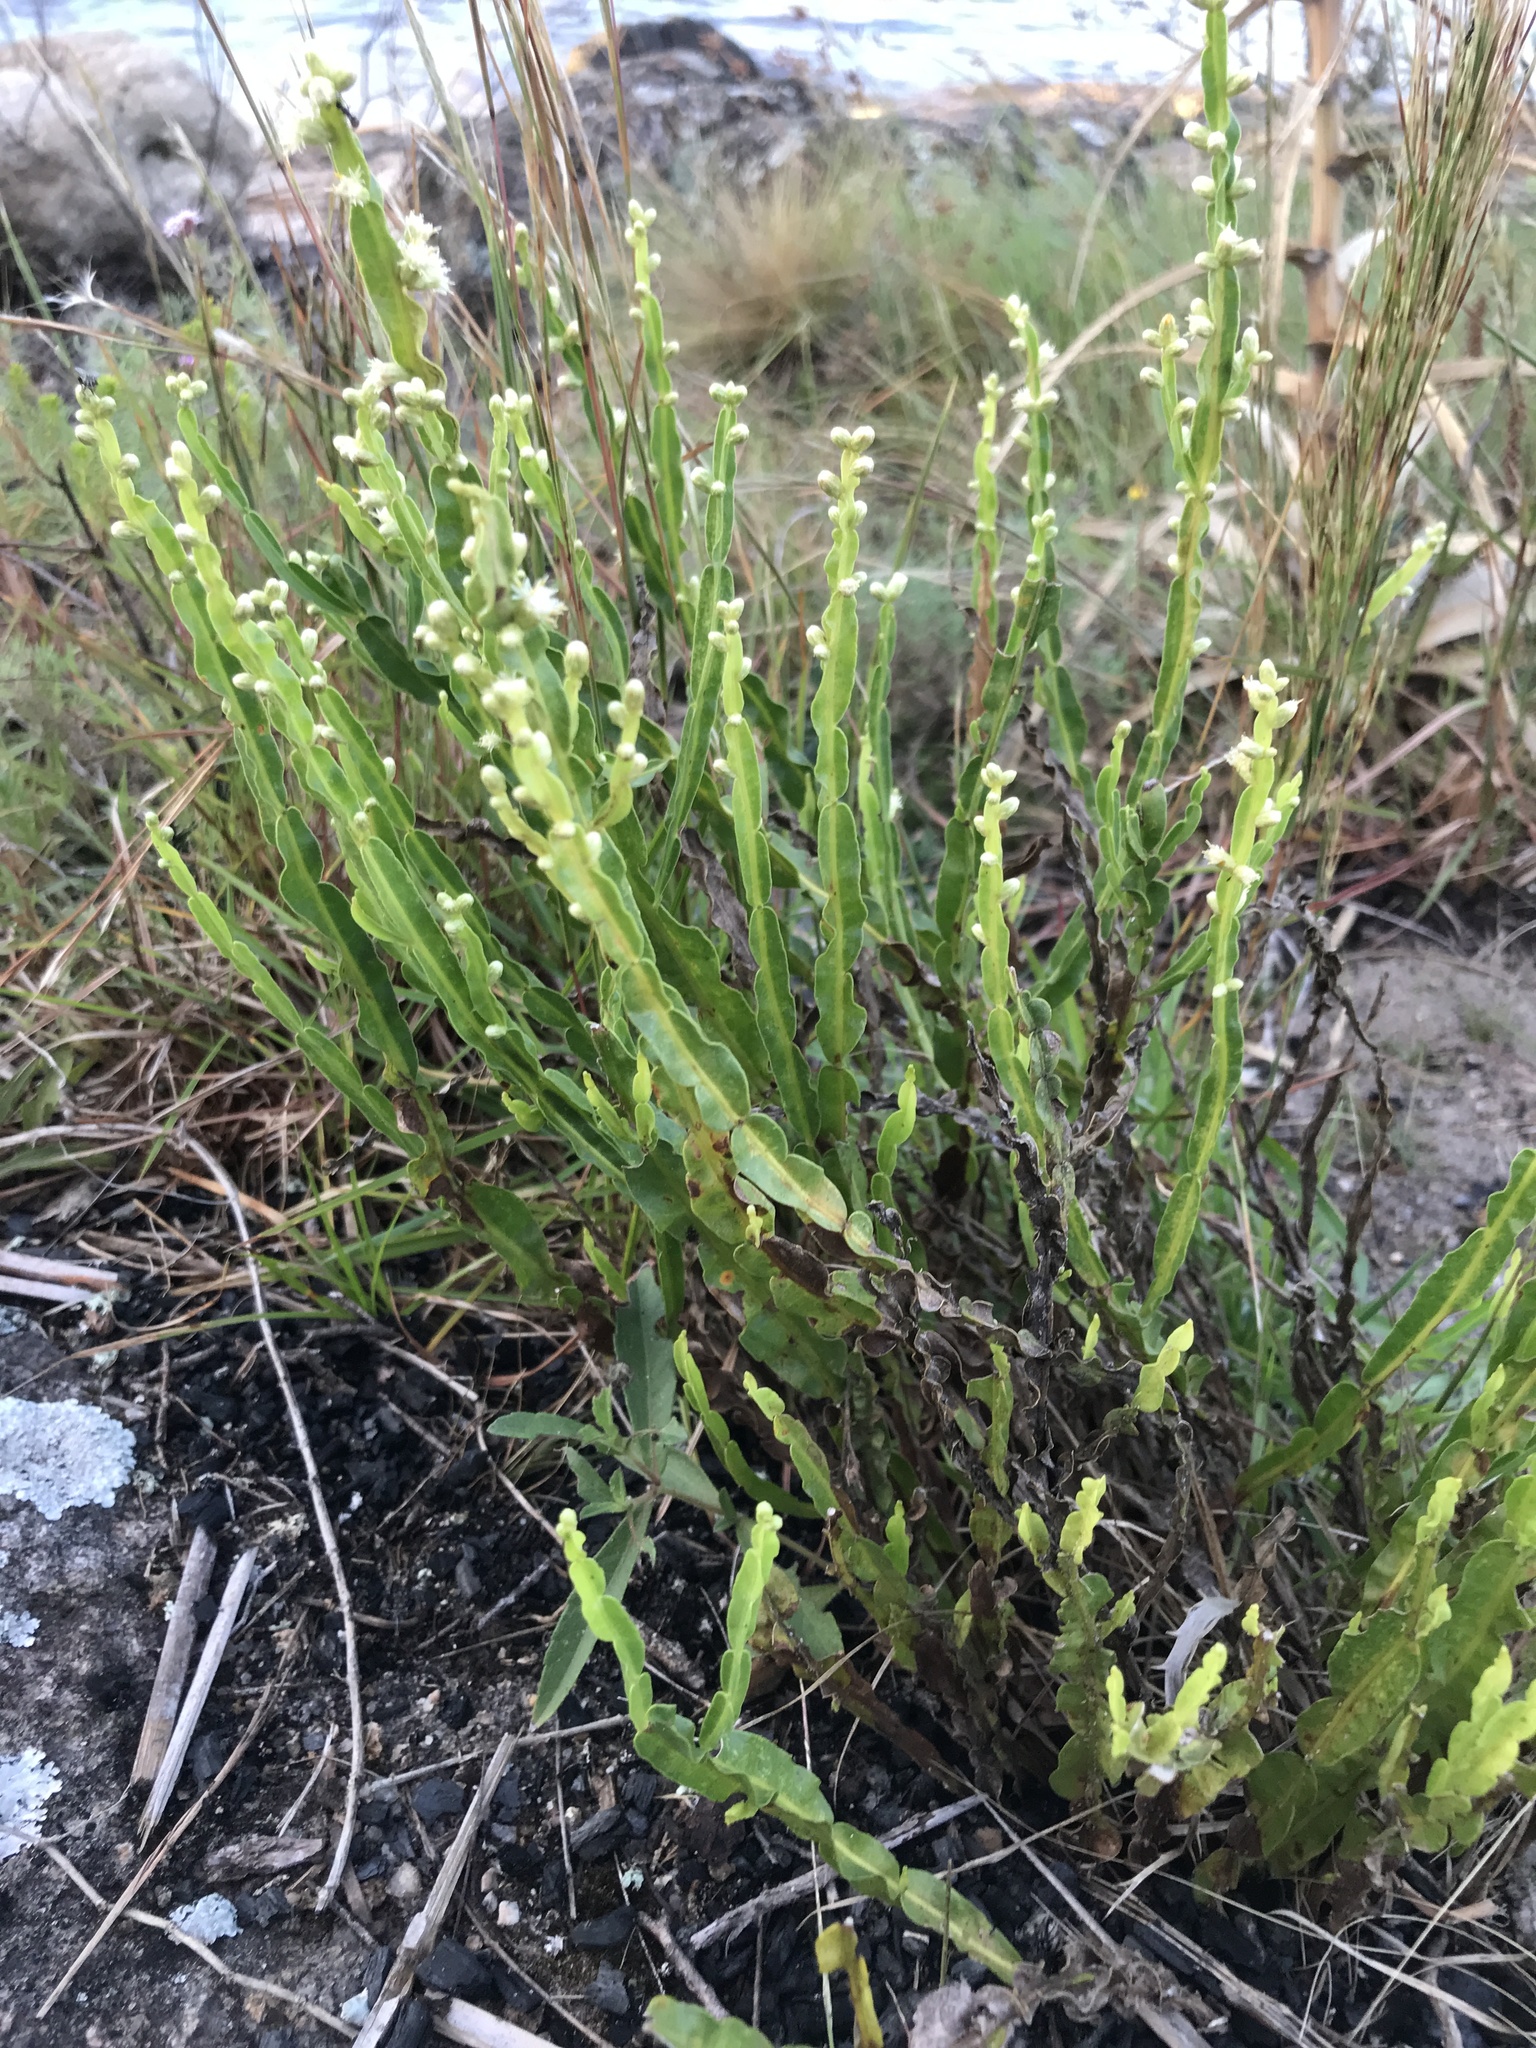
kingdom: Plantae
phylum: Tracheophyta
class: Magnoliopsida
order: Asterales
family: Asteraceae
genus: Baccharis
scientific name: Baccharis trimera
